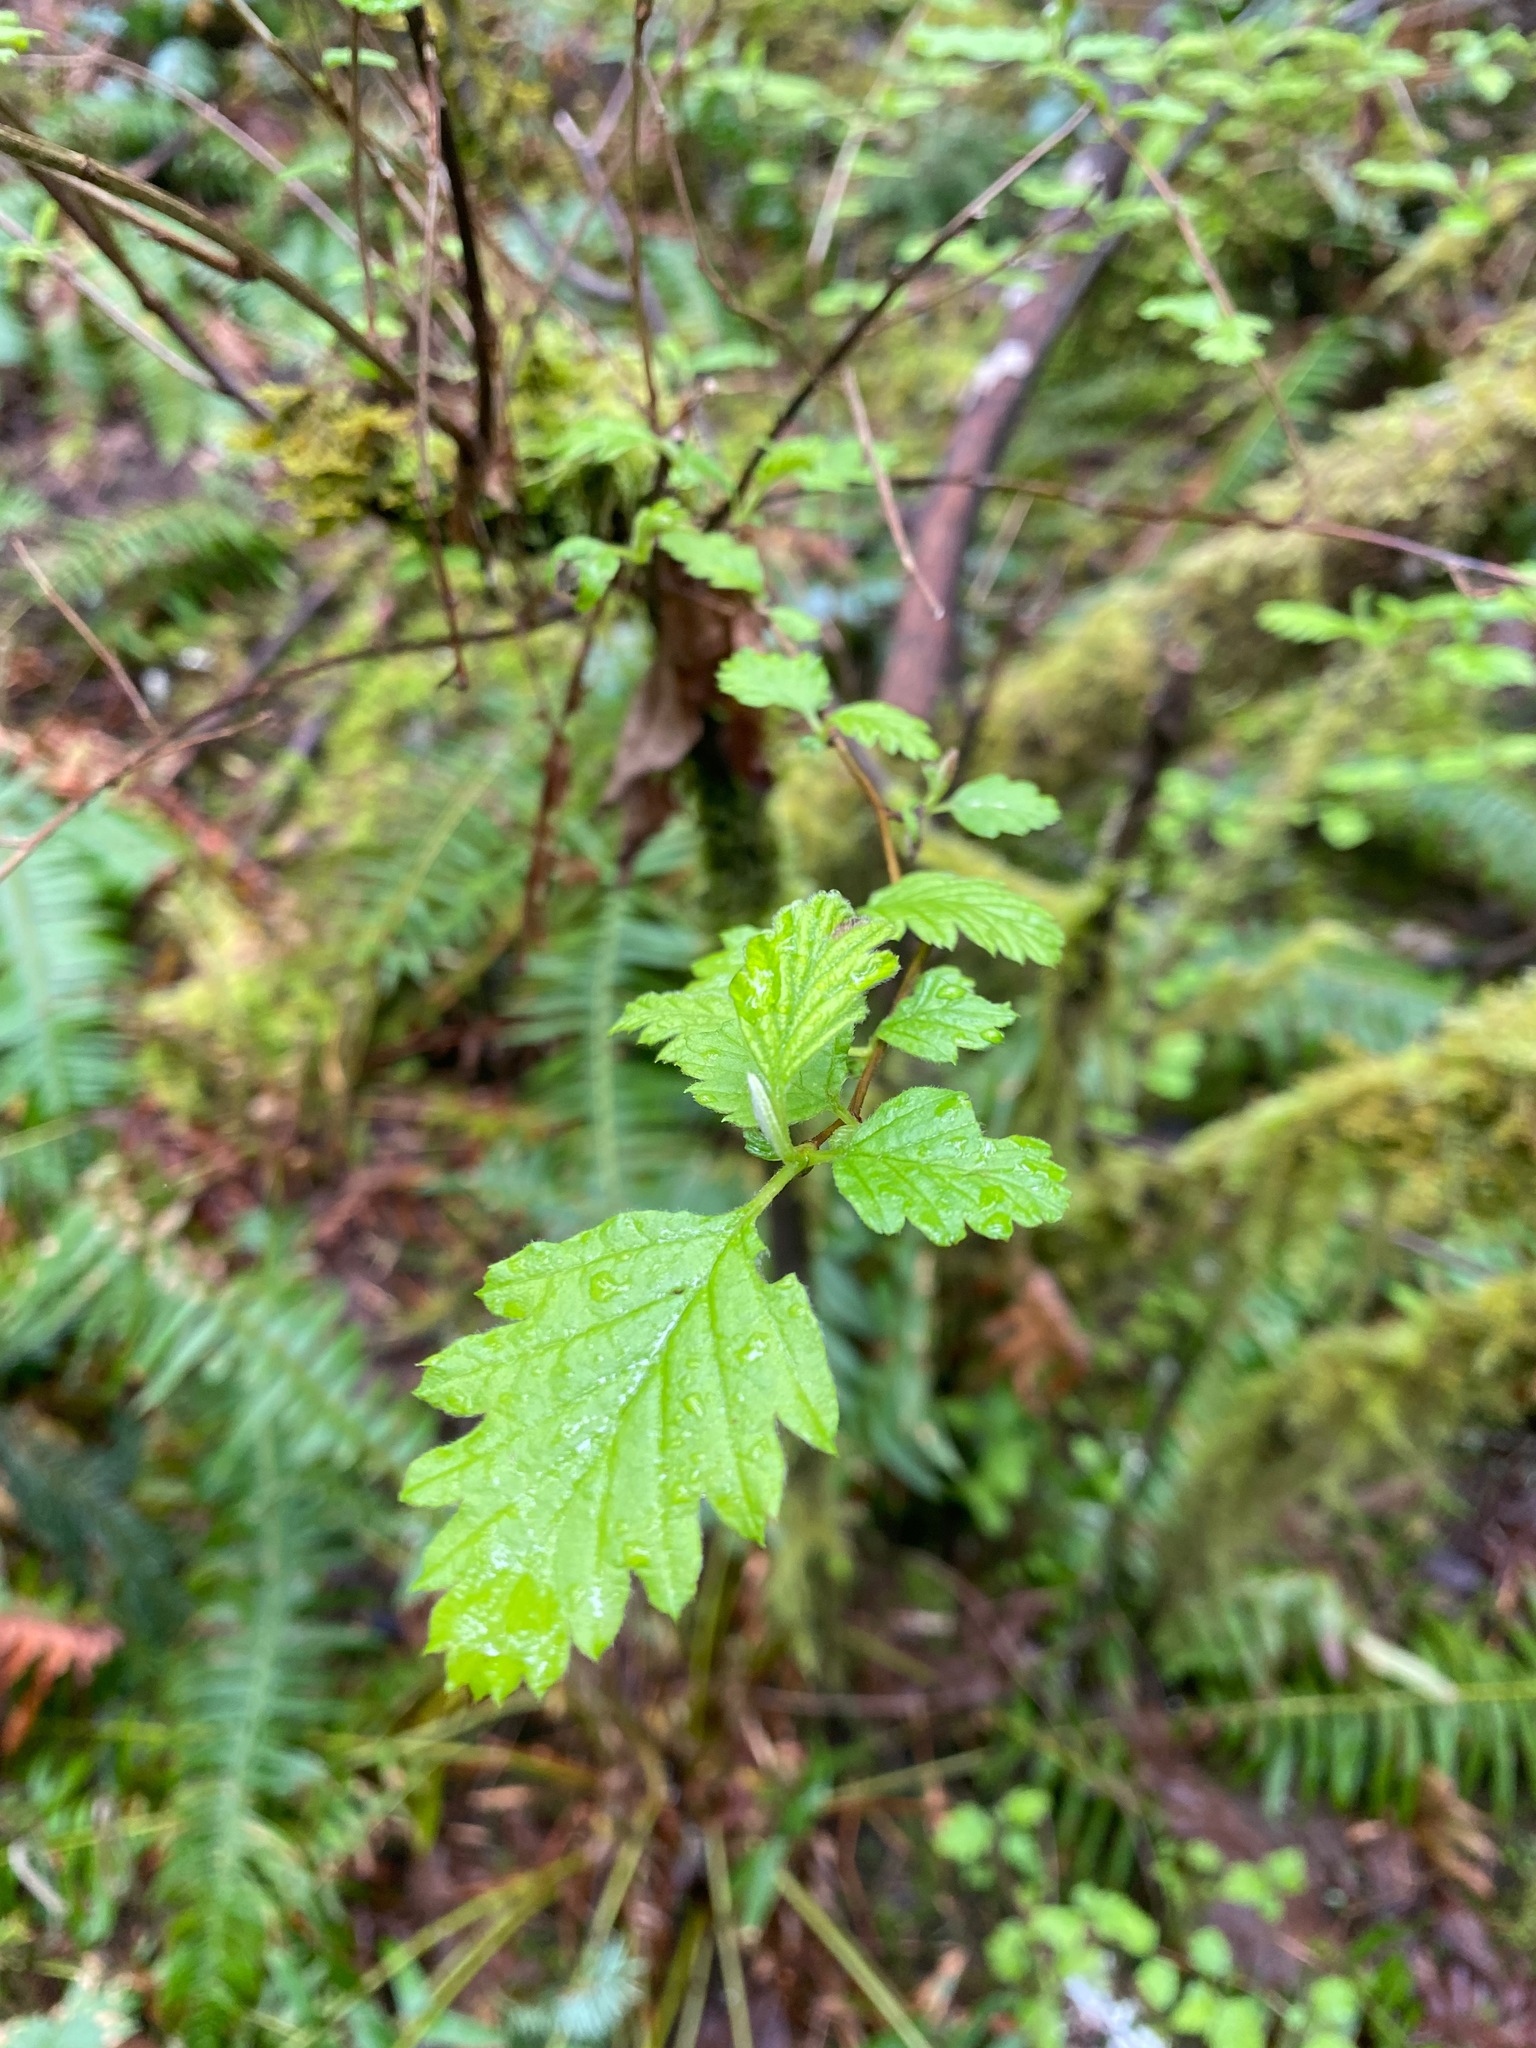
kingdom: Plantae
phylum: Tracheophyta
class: Magnoliopsida
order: Rosales
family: Rosaceae
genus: Holodiscus
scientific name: Holodiscus discolor
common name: Oceanspray
